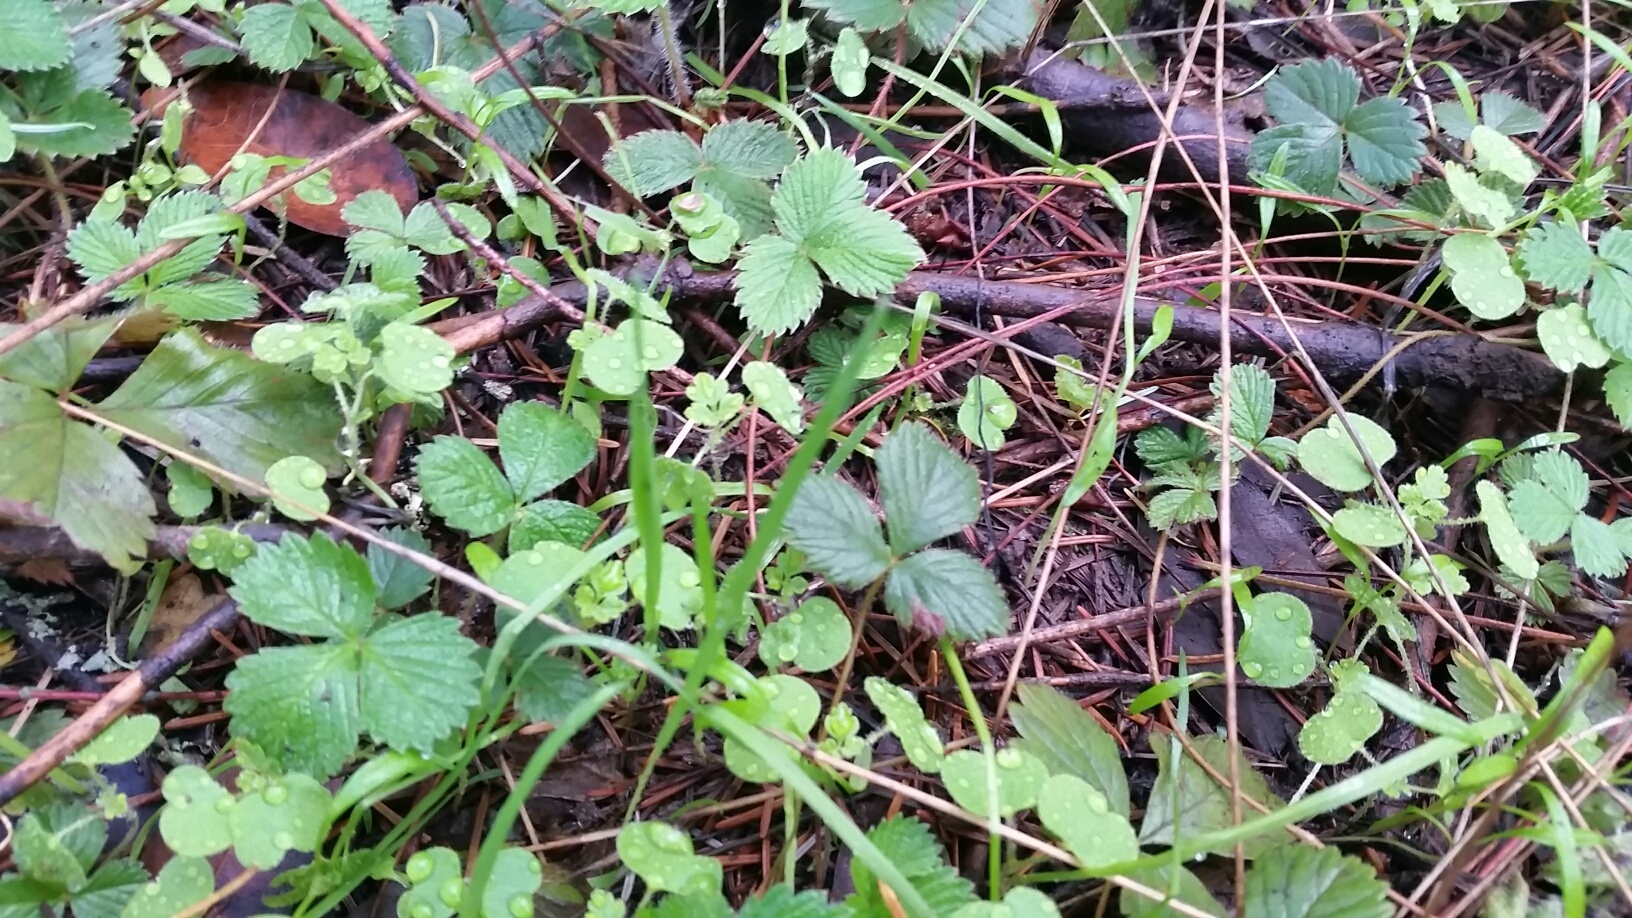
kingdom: Plantae
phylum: Tracheophyta
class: Magnoliopsida
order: Rosales
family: Rosaceae
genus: Fragaria
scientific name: Fragaria vesca
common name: Wild strawberry
